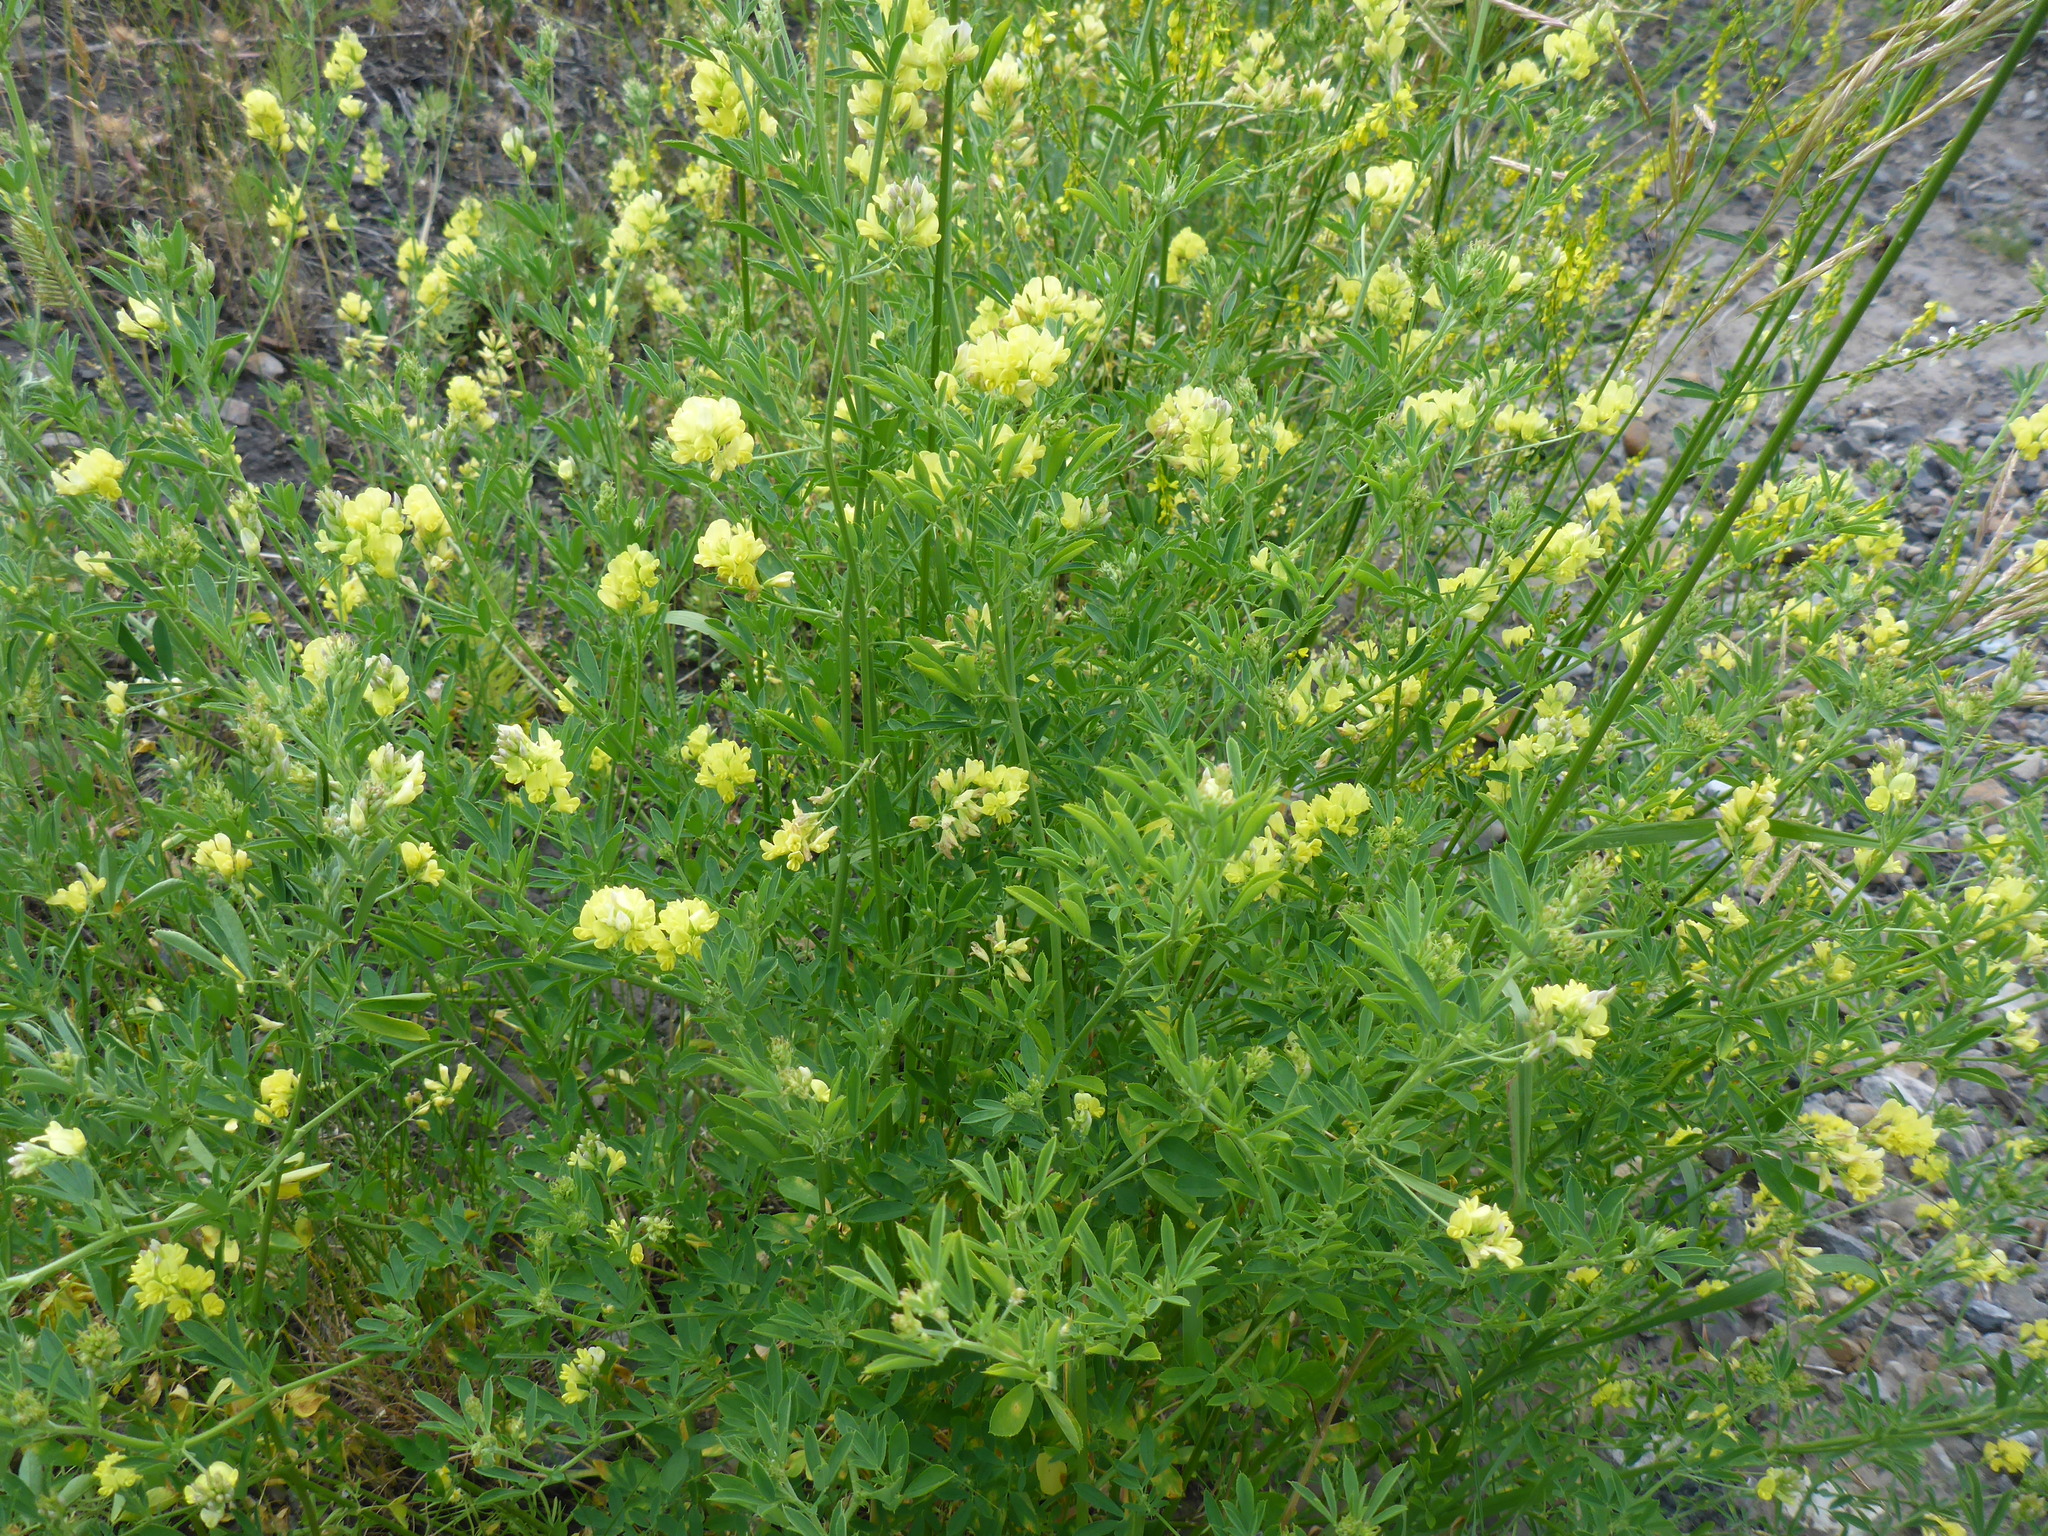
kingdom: Plantae
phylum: Tracheophyta
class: Magnoliopsida
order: Fabales
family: Fabaceae
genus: Medicago
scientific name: Medicago sativa
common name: Alfalfa
